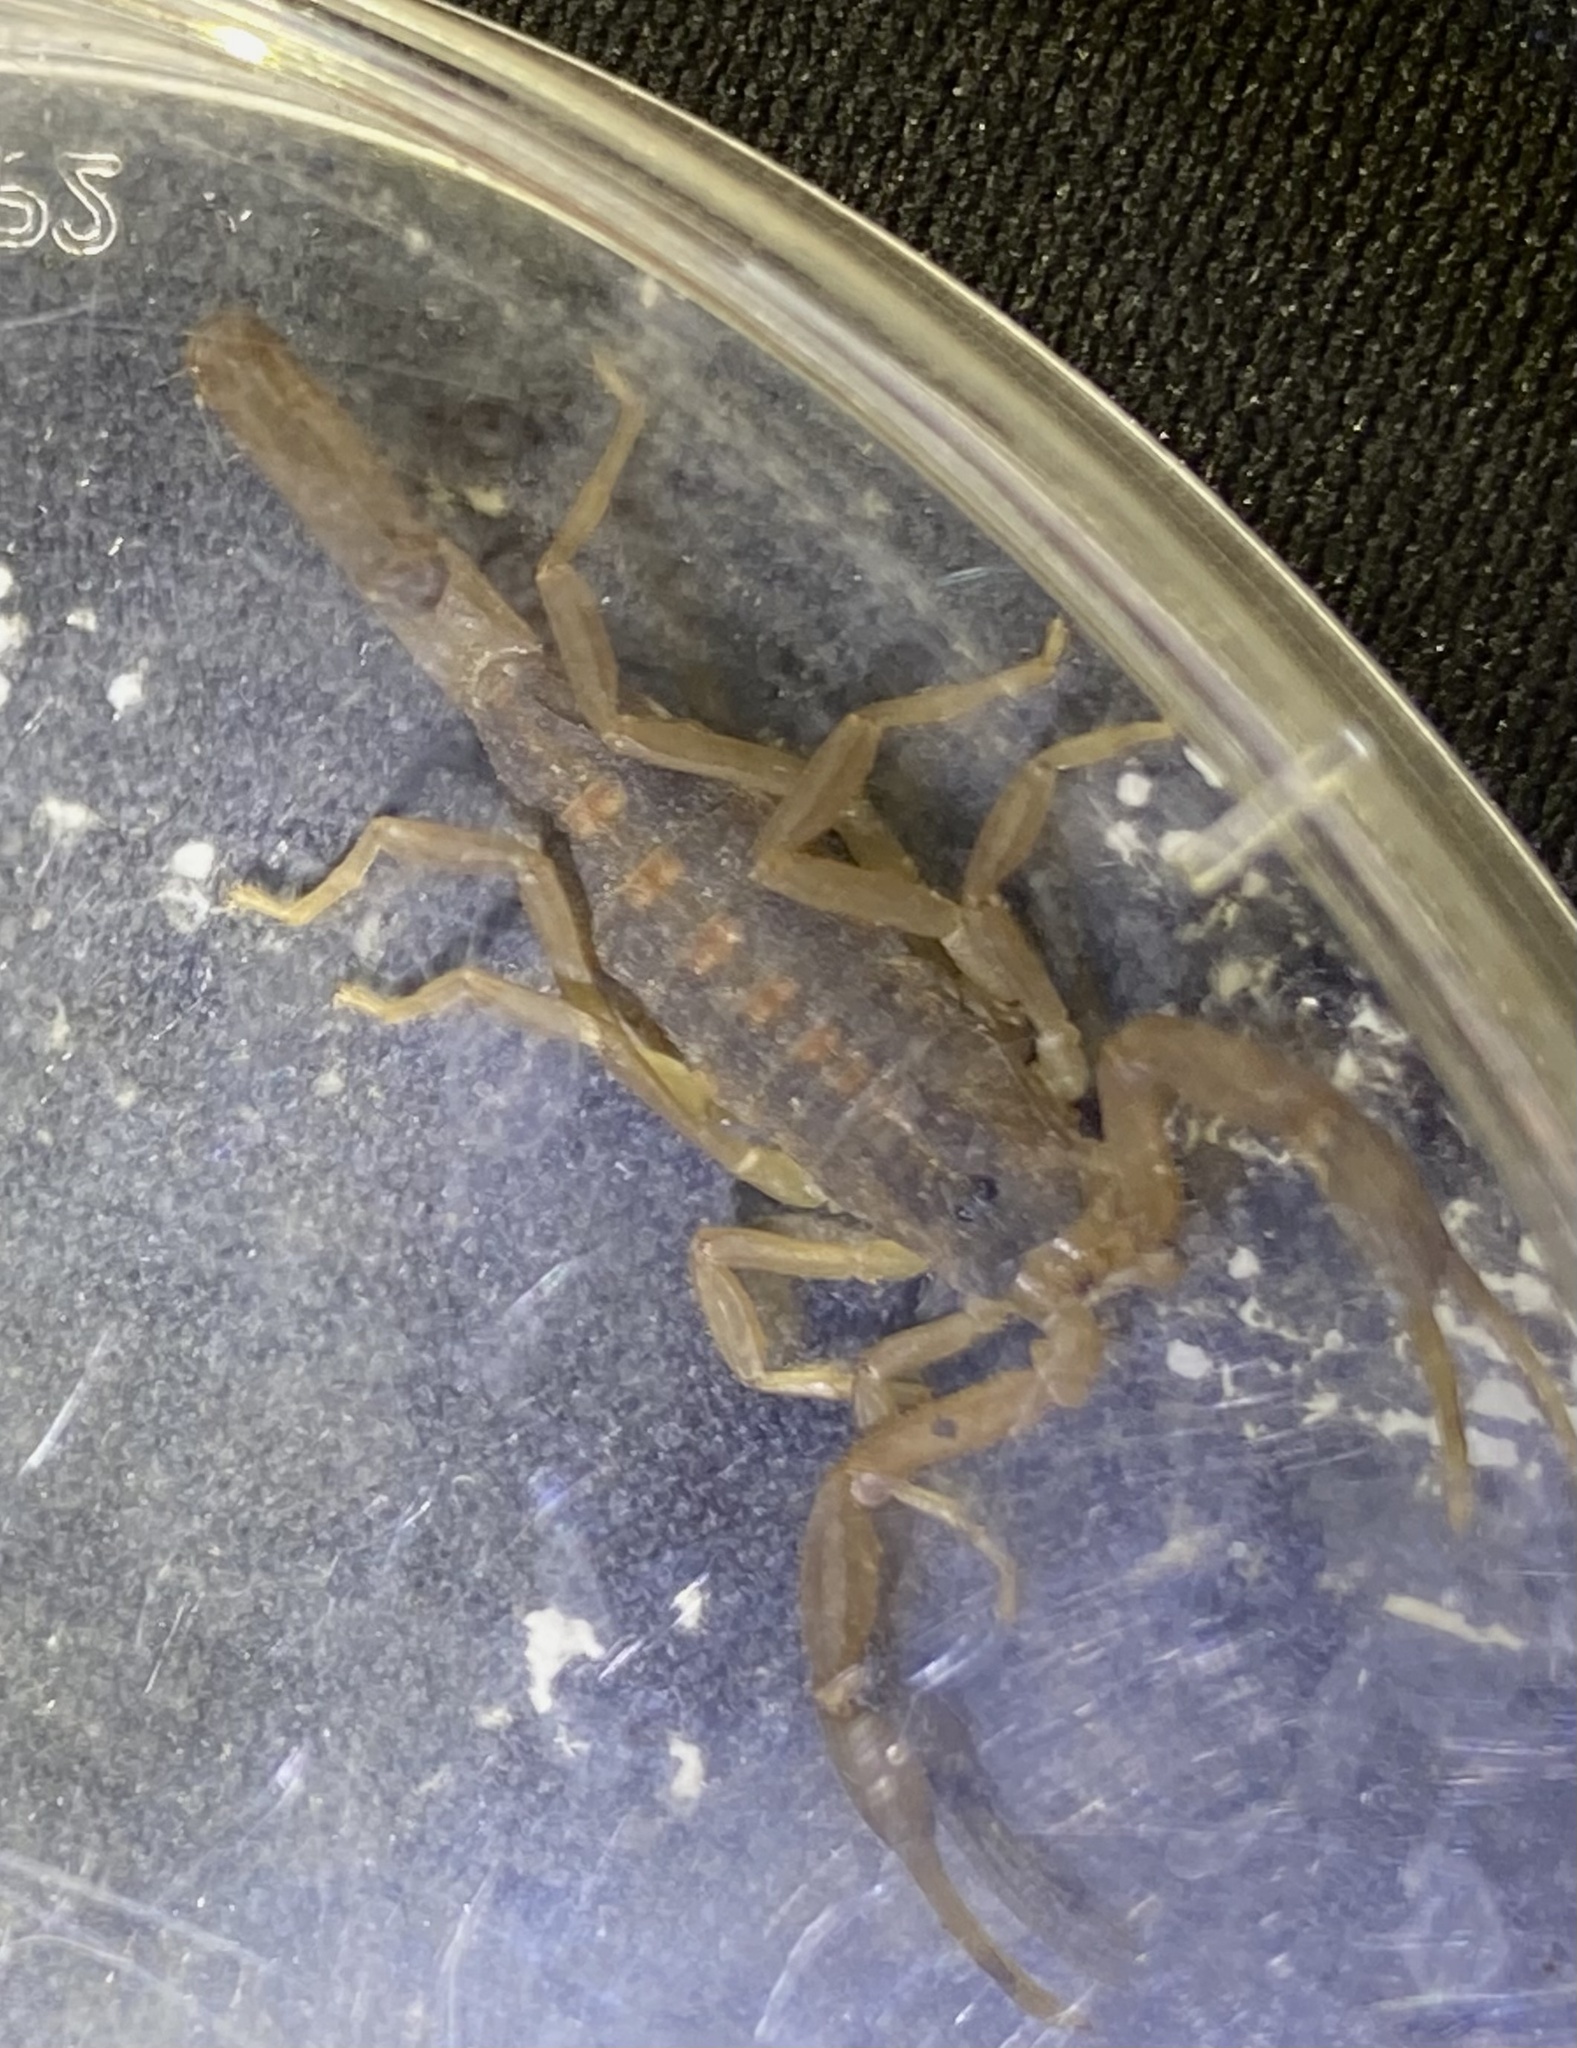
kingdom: Animalia
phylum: Arthropoda
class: Arachnida
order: Scorpiones
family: Buthidae
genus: Centruroides
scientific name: Centruroides vittatus
